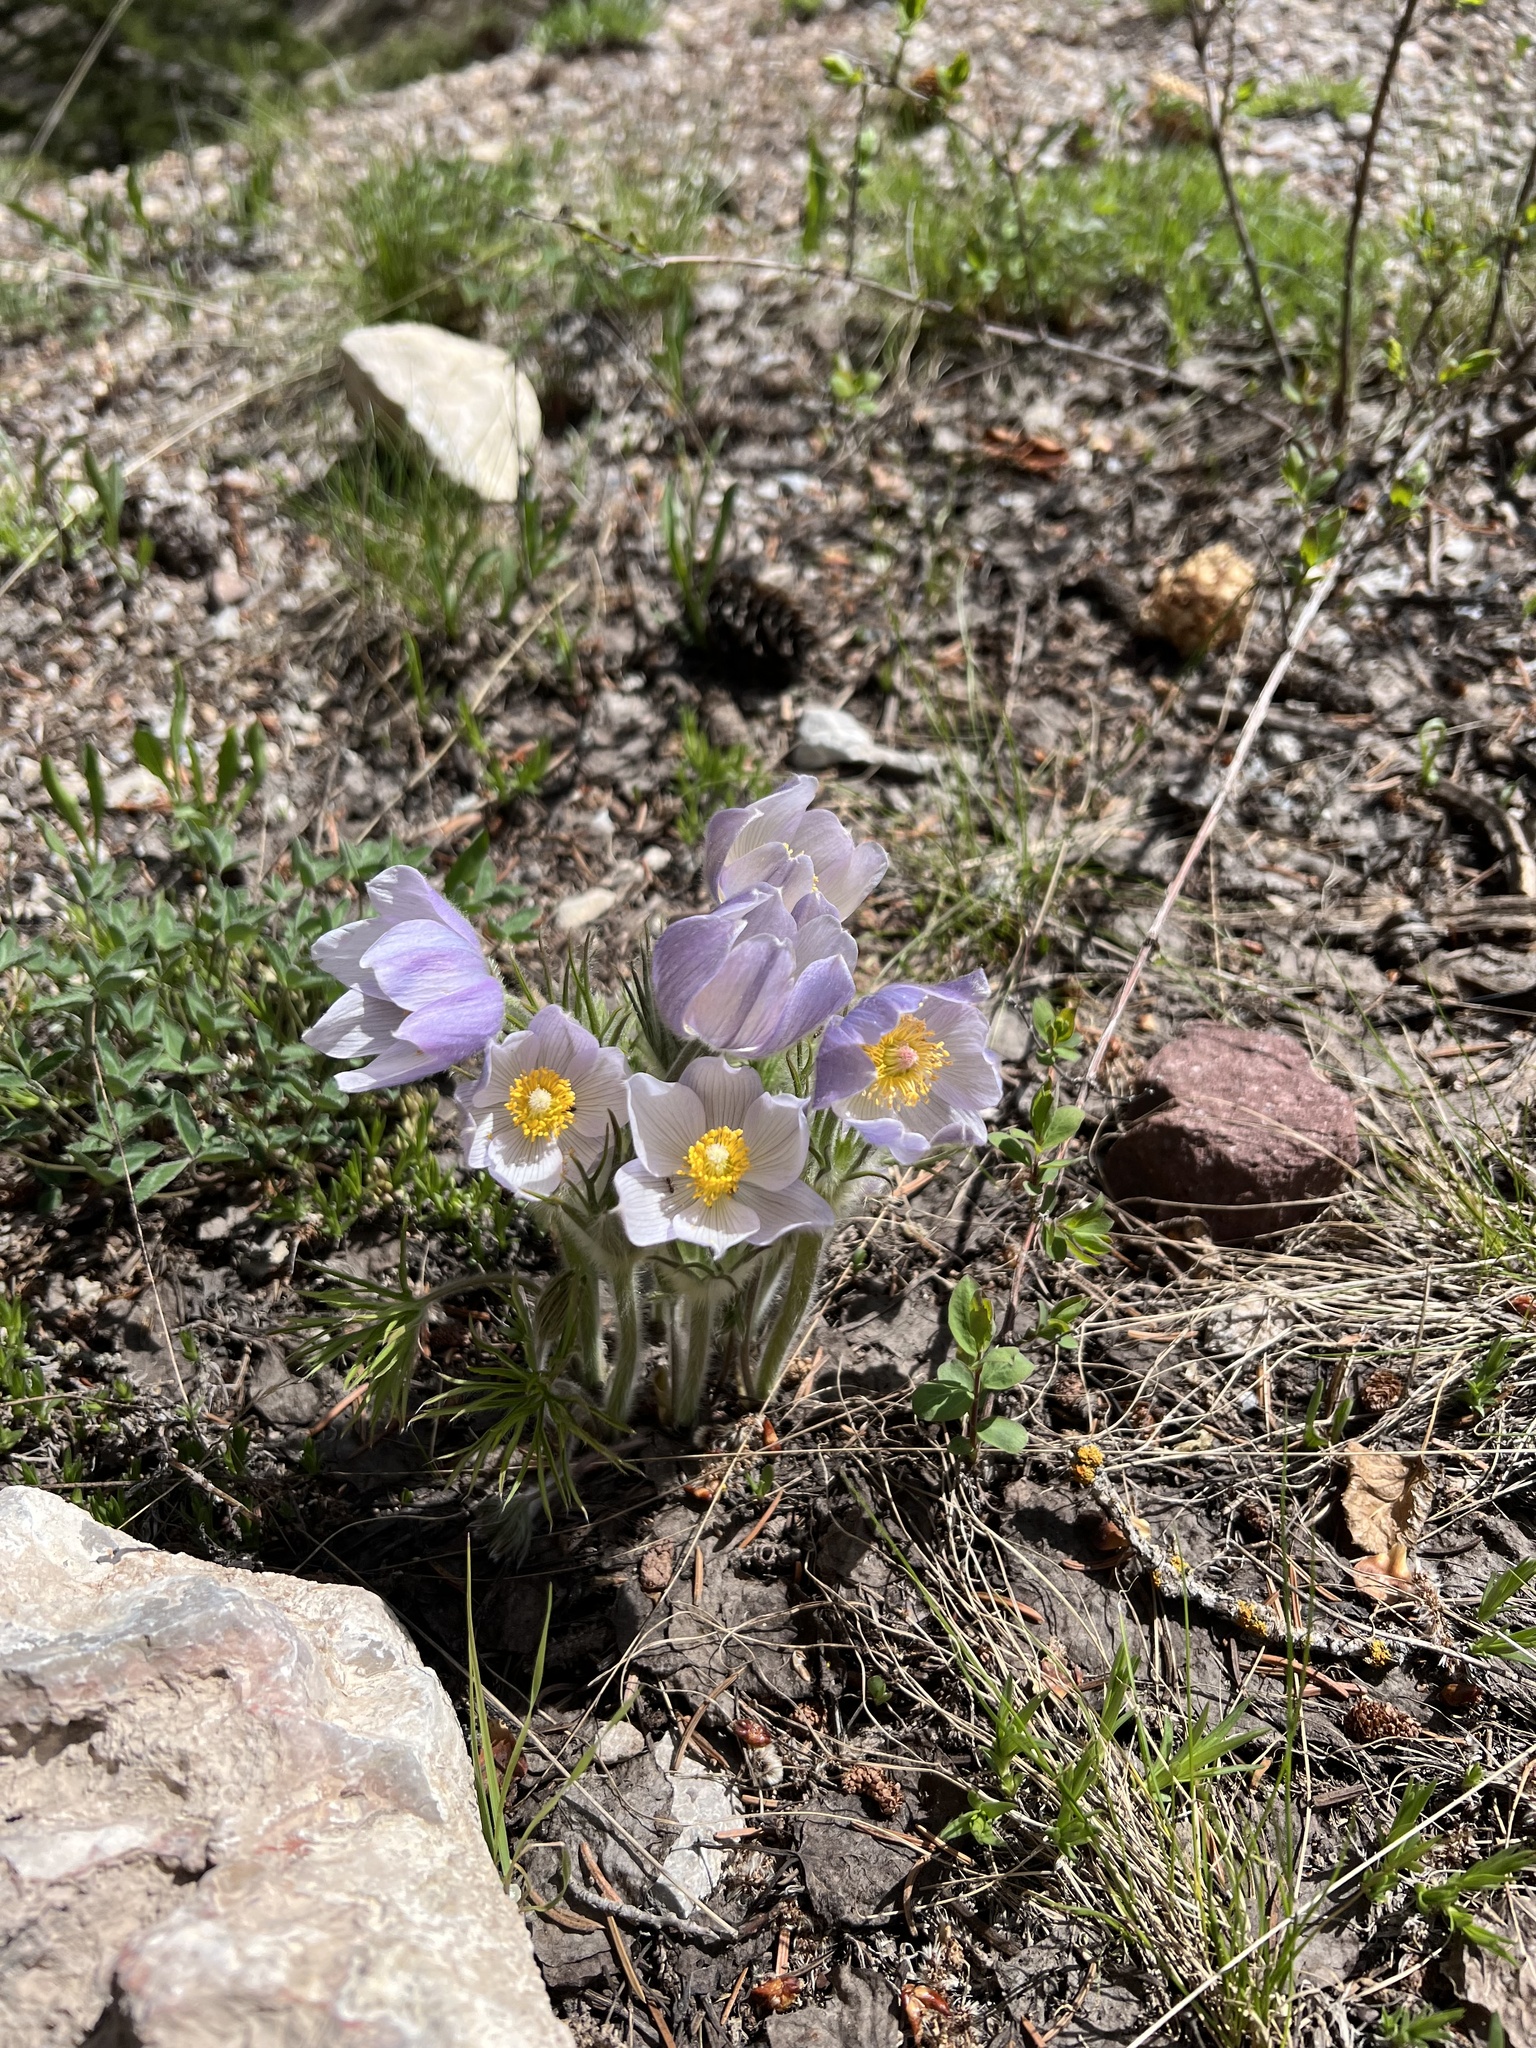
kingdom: Plantae
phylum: Tracheophyta
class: Magnoliopsida
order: Ranunculales
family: Ranunculaceae
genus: Pulsatilla
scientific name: Pulsatilla nuttalliana
